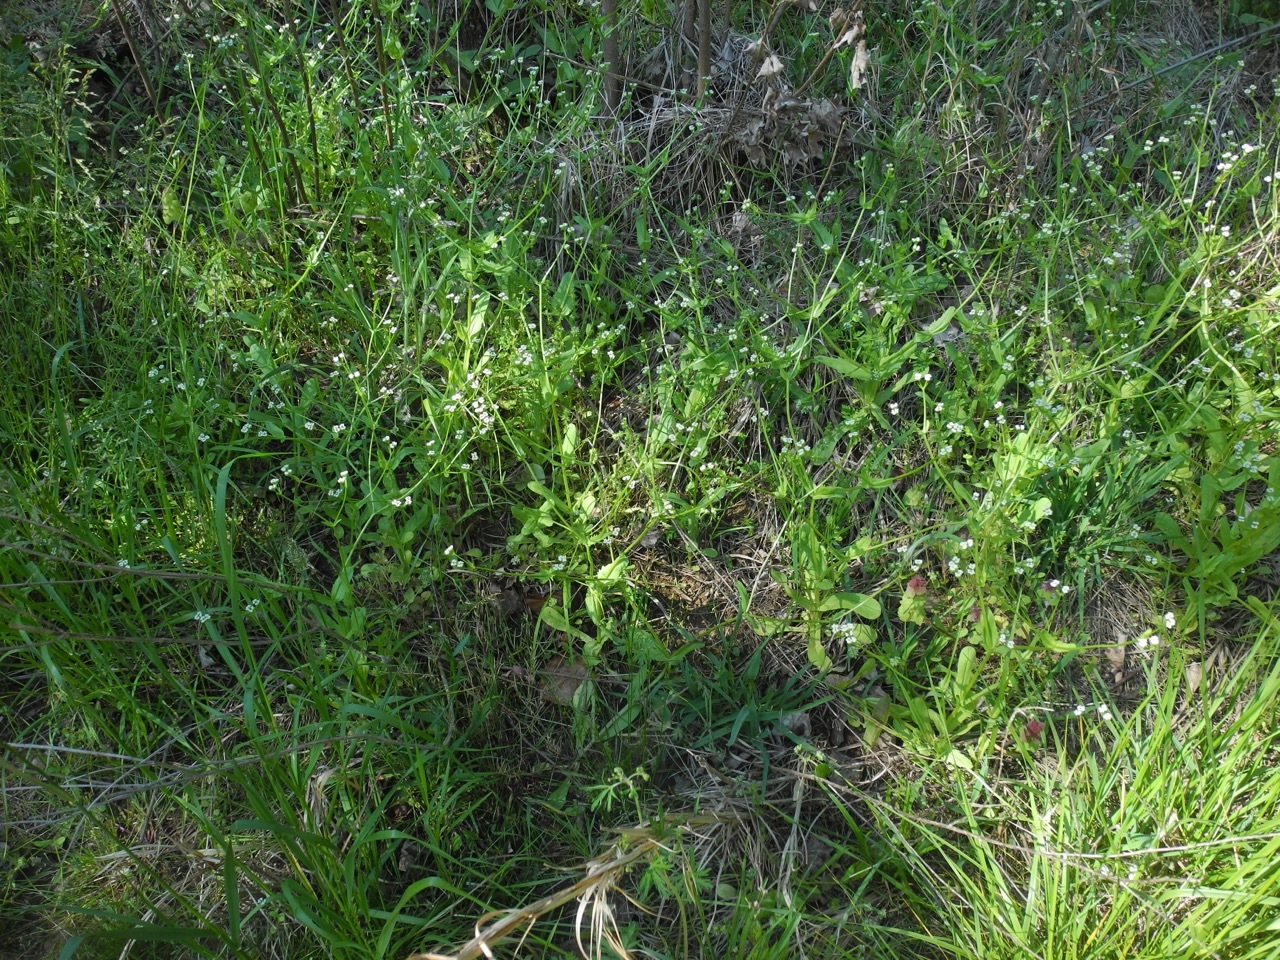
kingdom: Plantae
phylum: Tracheophyta
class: Magnoliopsida
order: Dipsacales
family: Caprifoliaceae
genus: Valerianella
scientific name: Valerianella radiata
